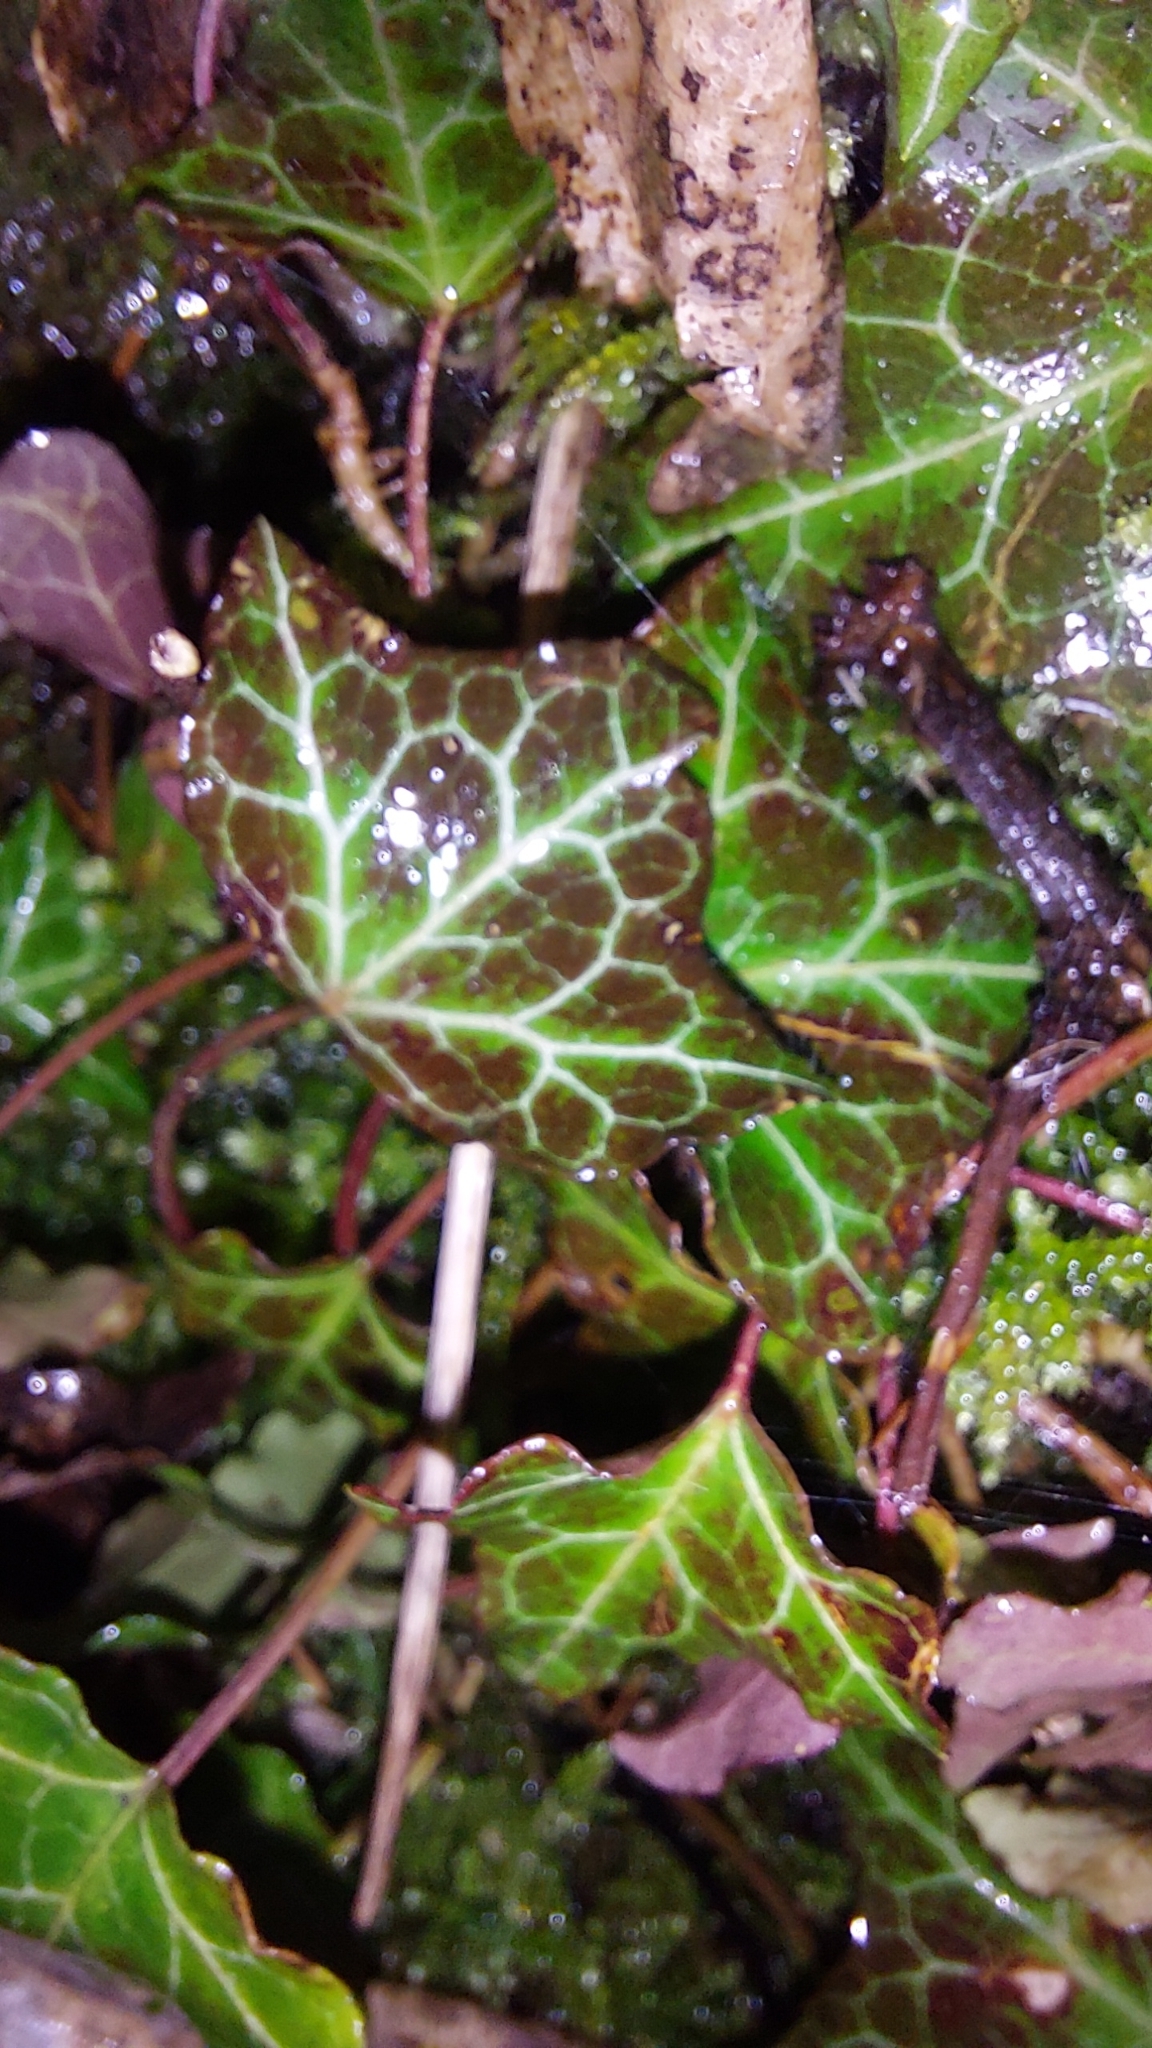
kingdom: Plantae
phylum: Tracheophyta
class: Magnoliopsida
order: Apiales
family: Araliaceae
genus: Hedera
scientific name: Hedera helix
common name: Ivy
